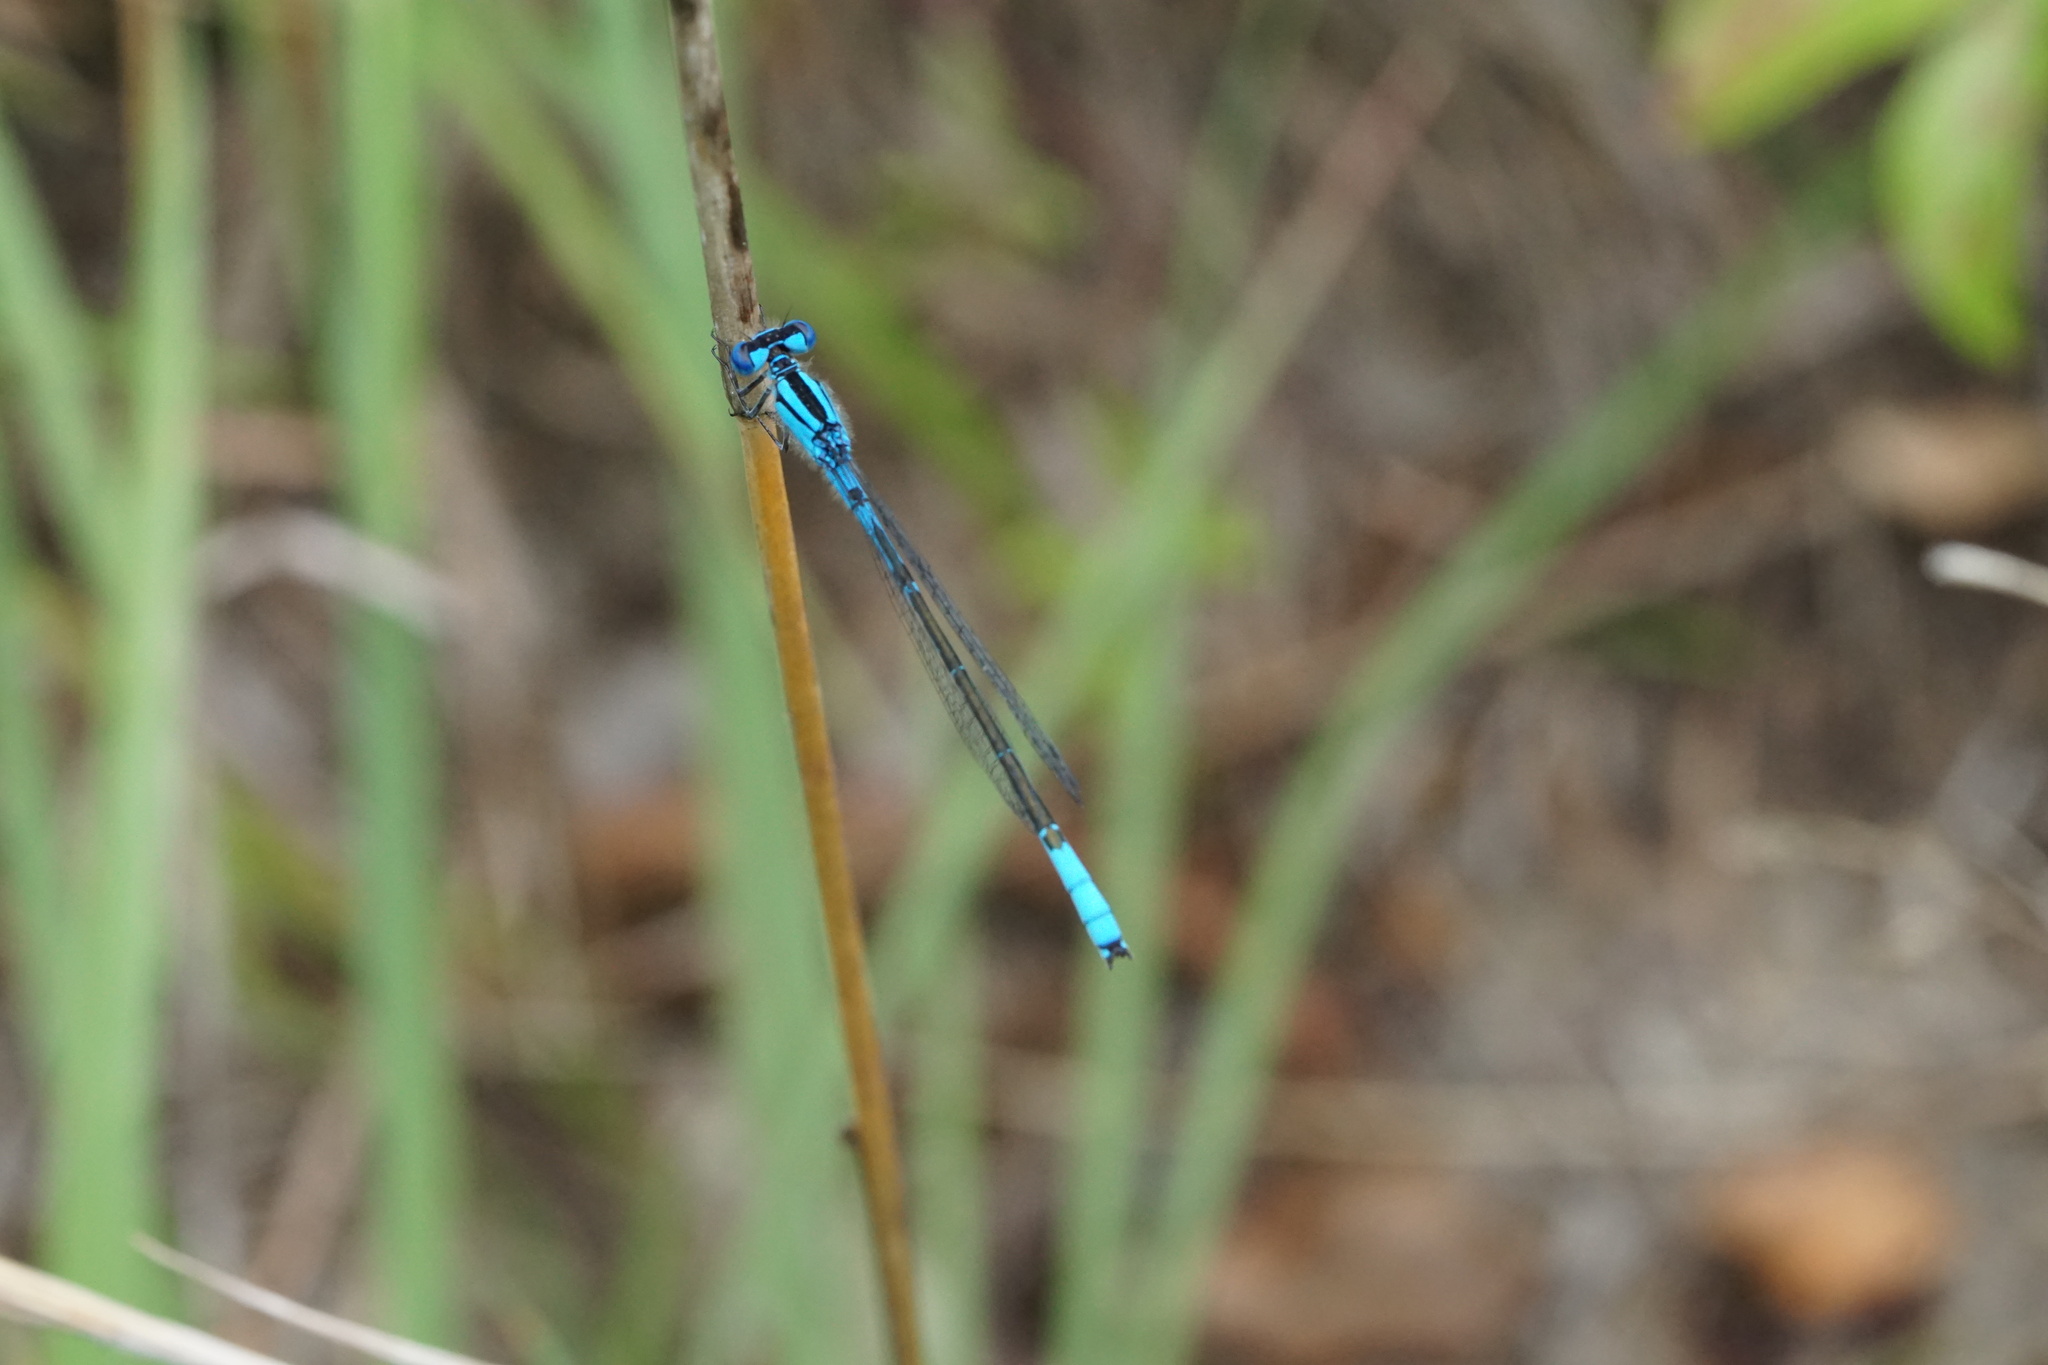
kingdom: Animalia
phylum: Arthropoda
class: Insecta
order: Odonata
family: Coenagrionidae
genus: Enallagma
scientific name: Enallagma aspersum
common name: Azure bluet
